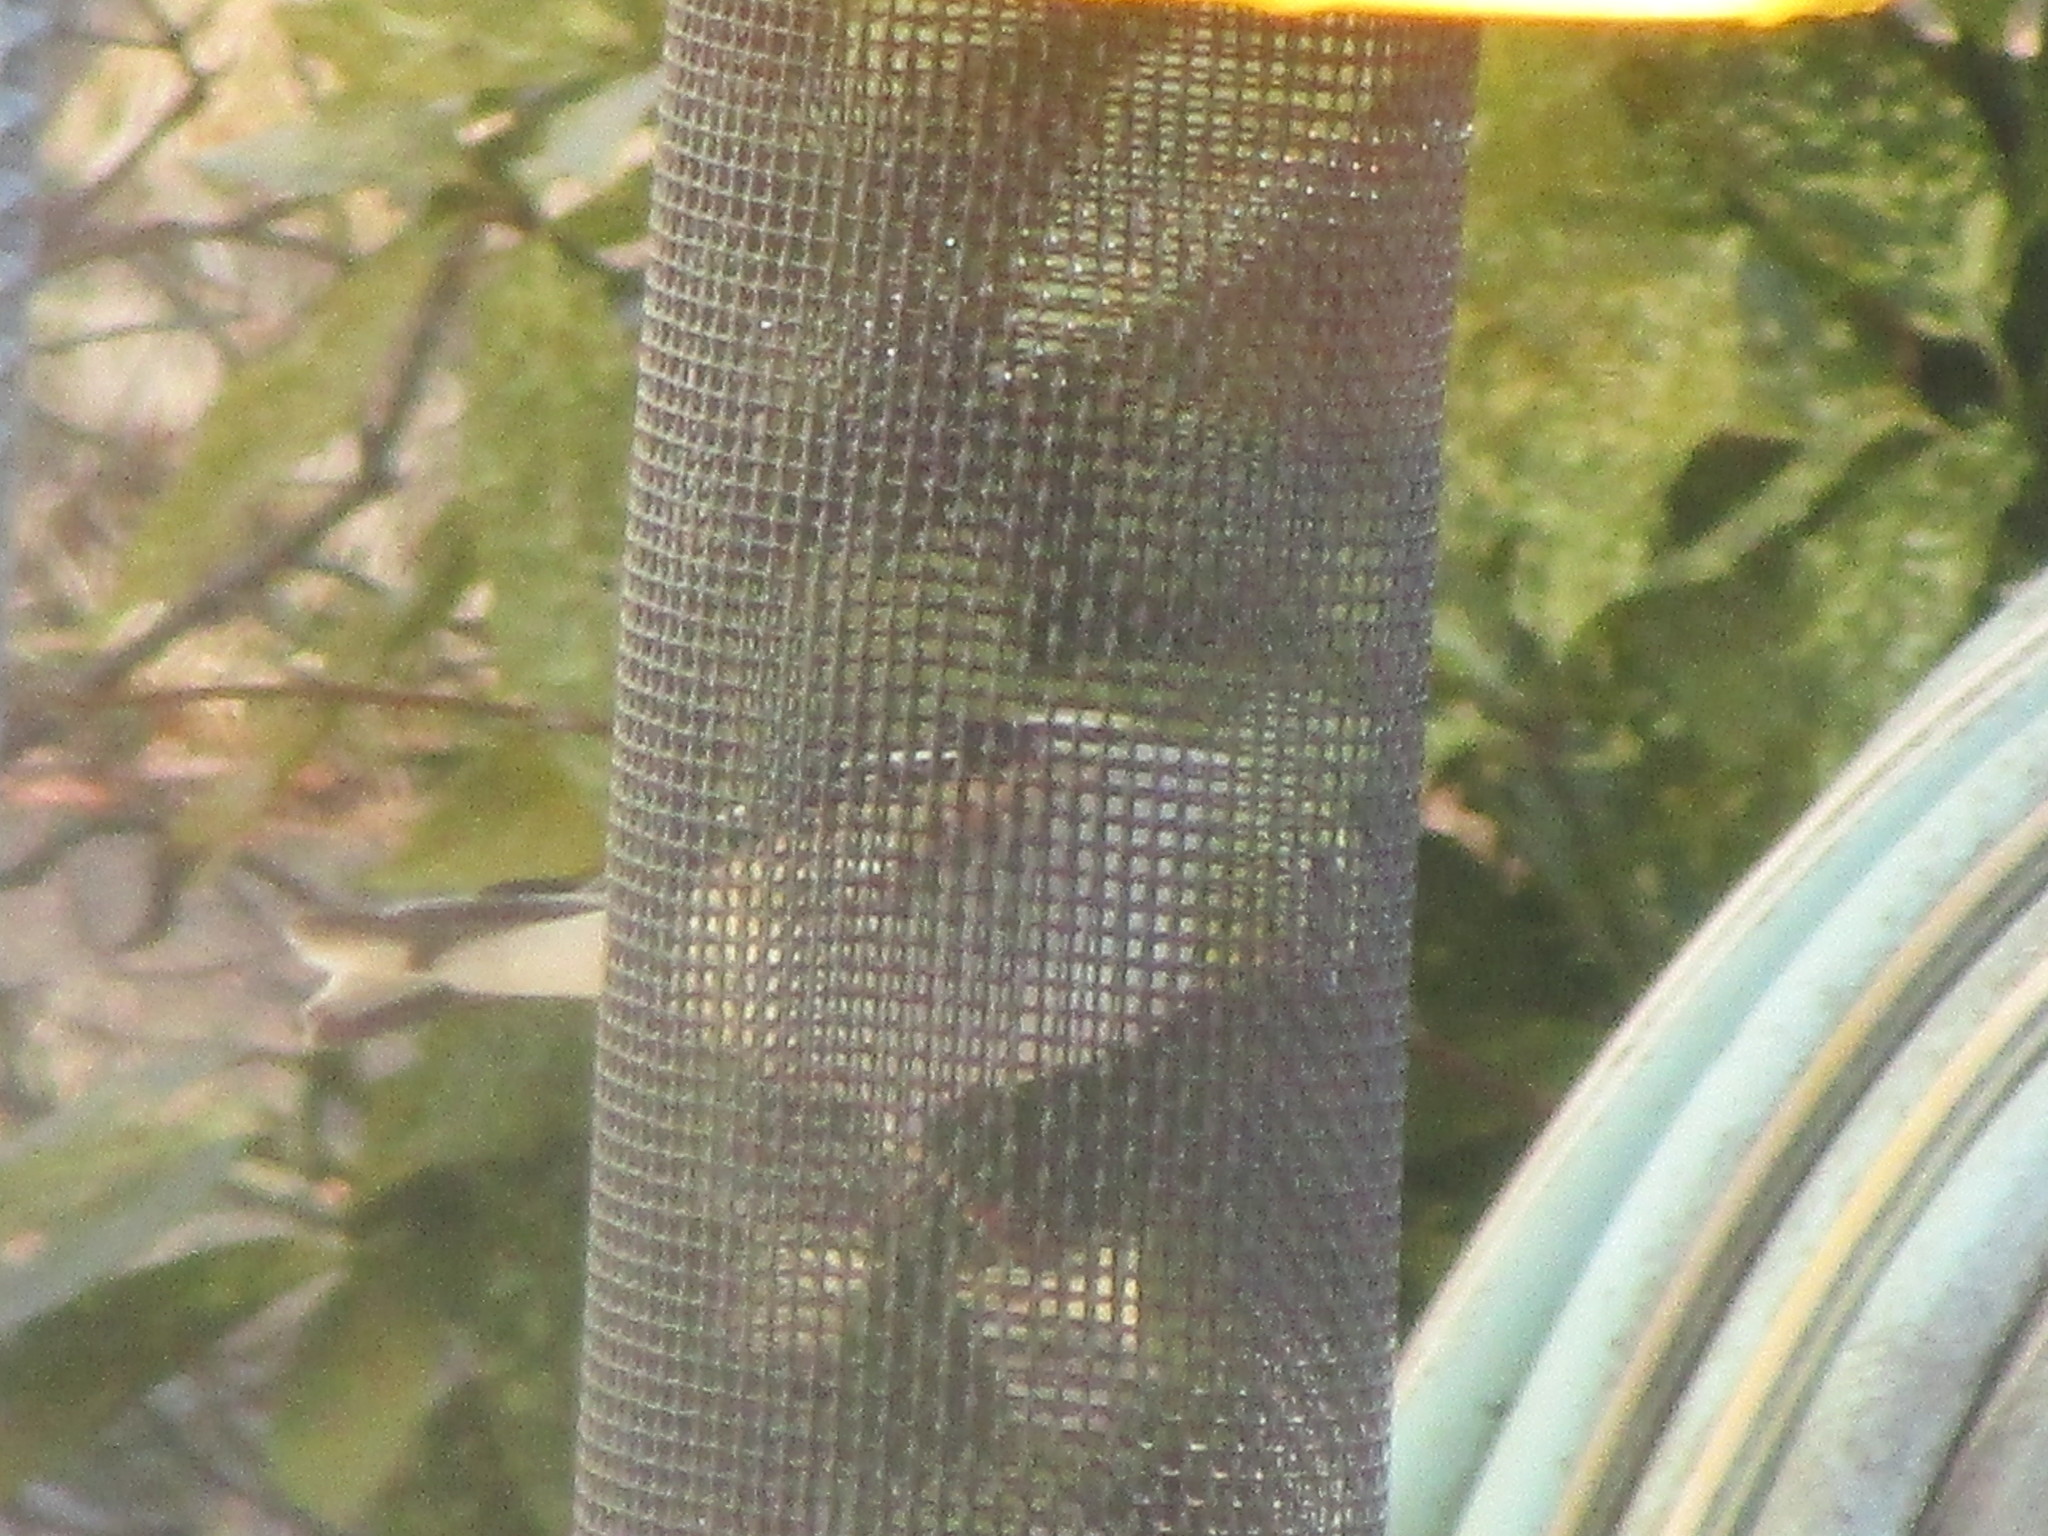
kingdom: Animalia
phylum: Chordata
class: Aves
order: Passeriformes
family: Fringillidae
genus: Spinus
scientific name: Spinus tristis
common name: American goldfinch
